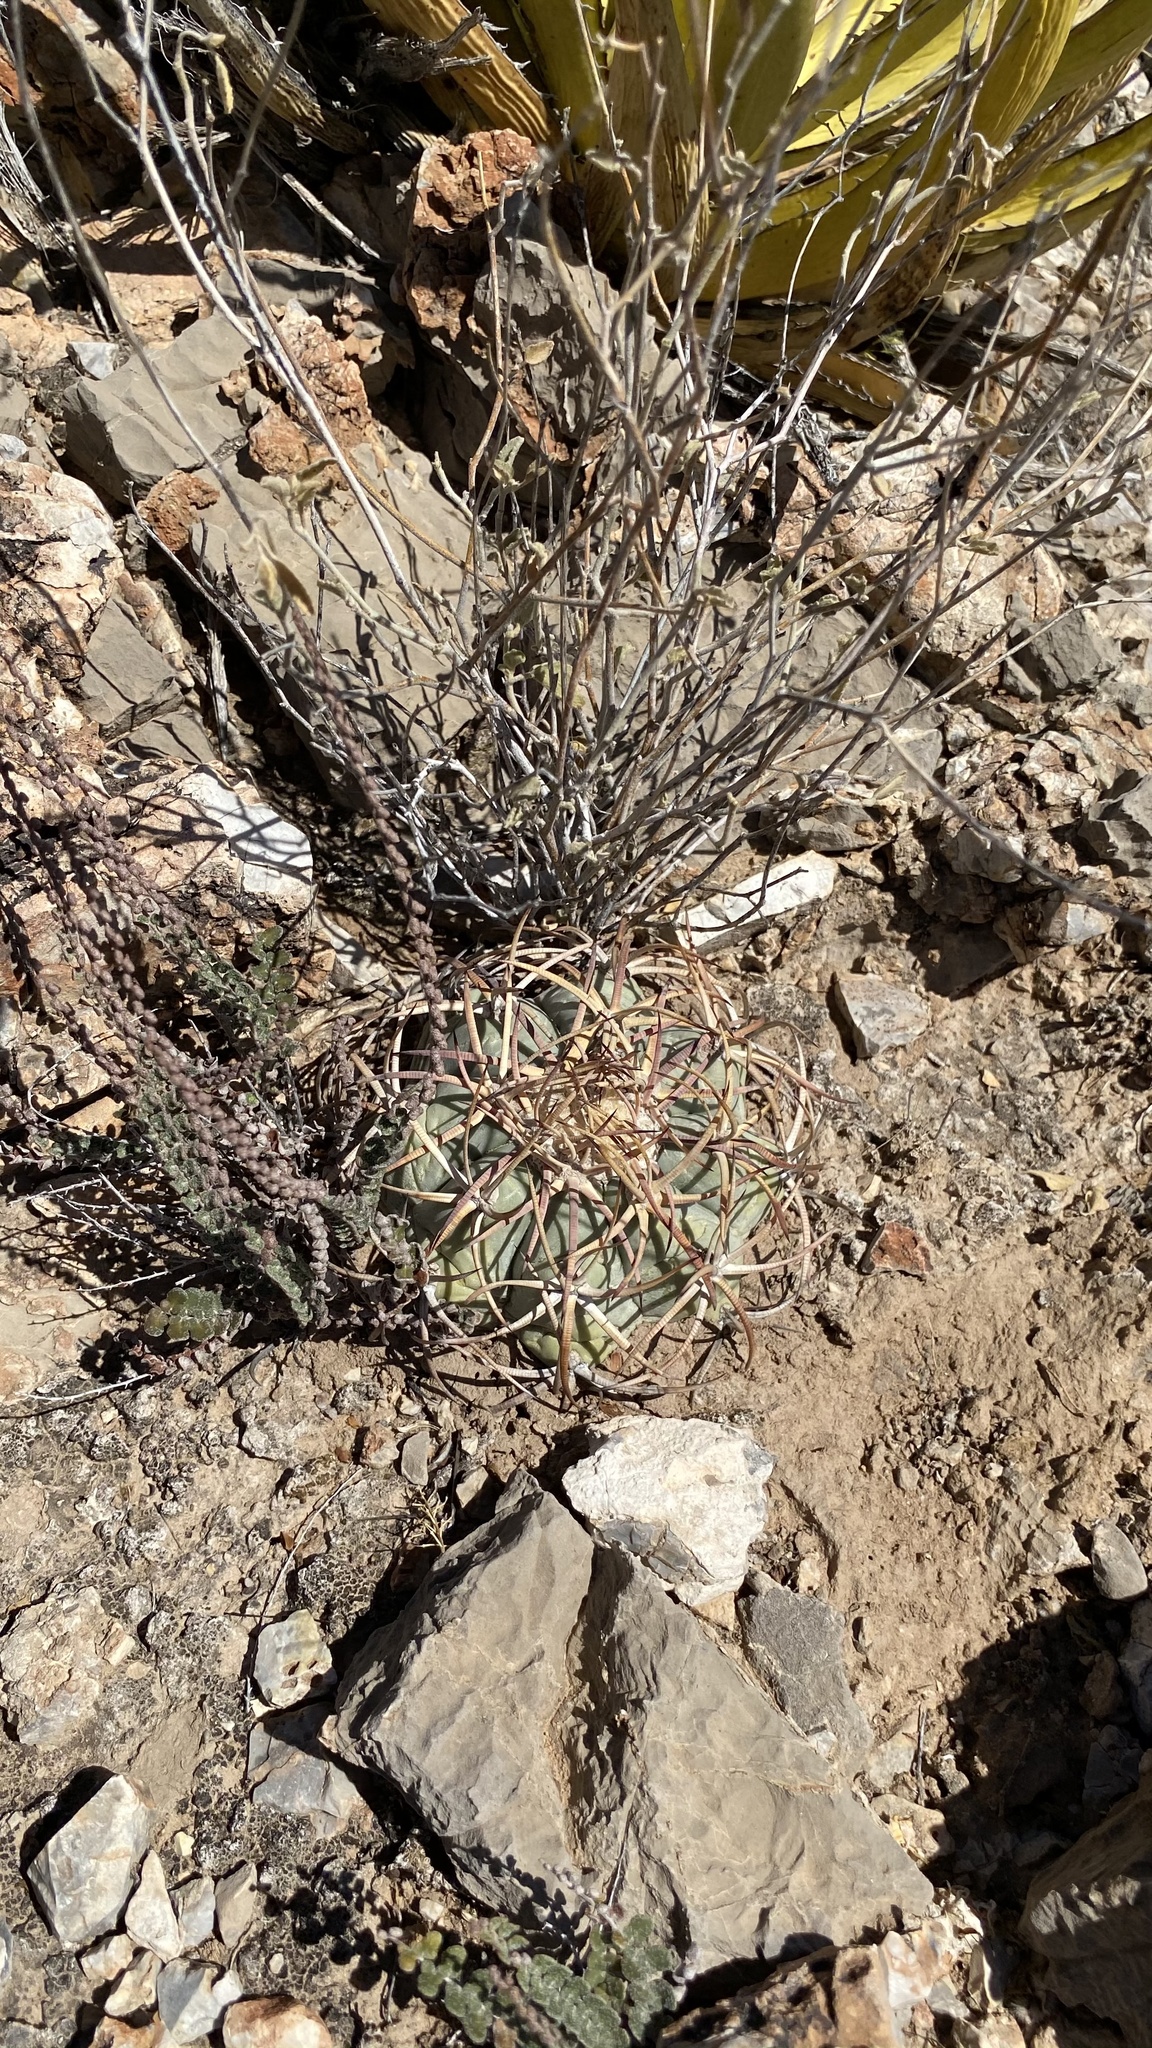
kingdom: Plantae
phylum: Tracheophyta
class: Magnoliopsida
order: Caryophyllales
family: Cactaceae
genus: Echinocactus
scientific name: Echinocactus horizonthalonius
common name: Devilshead
